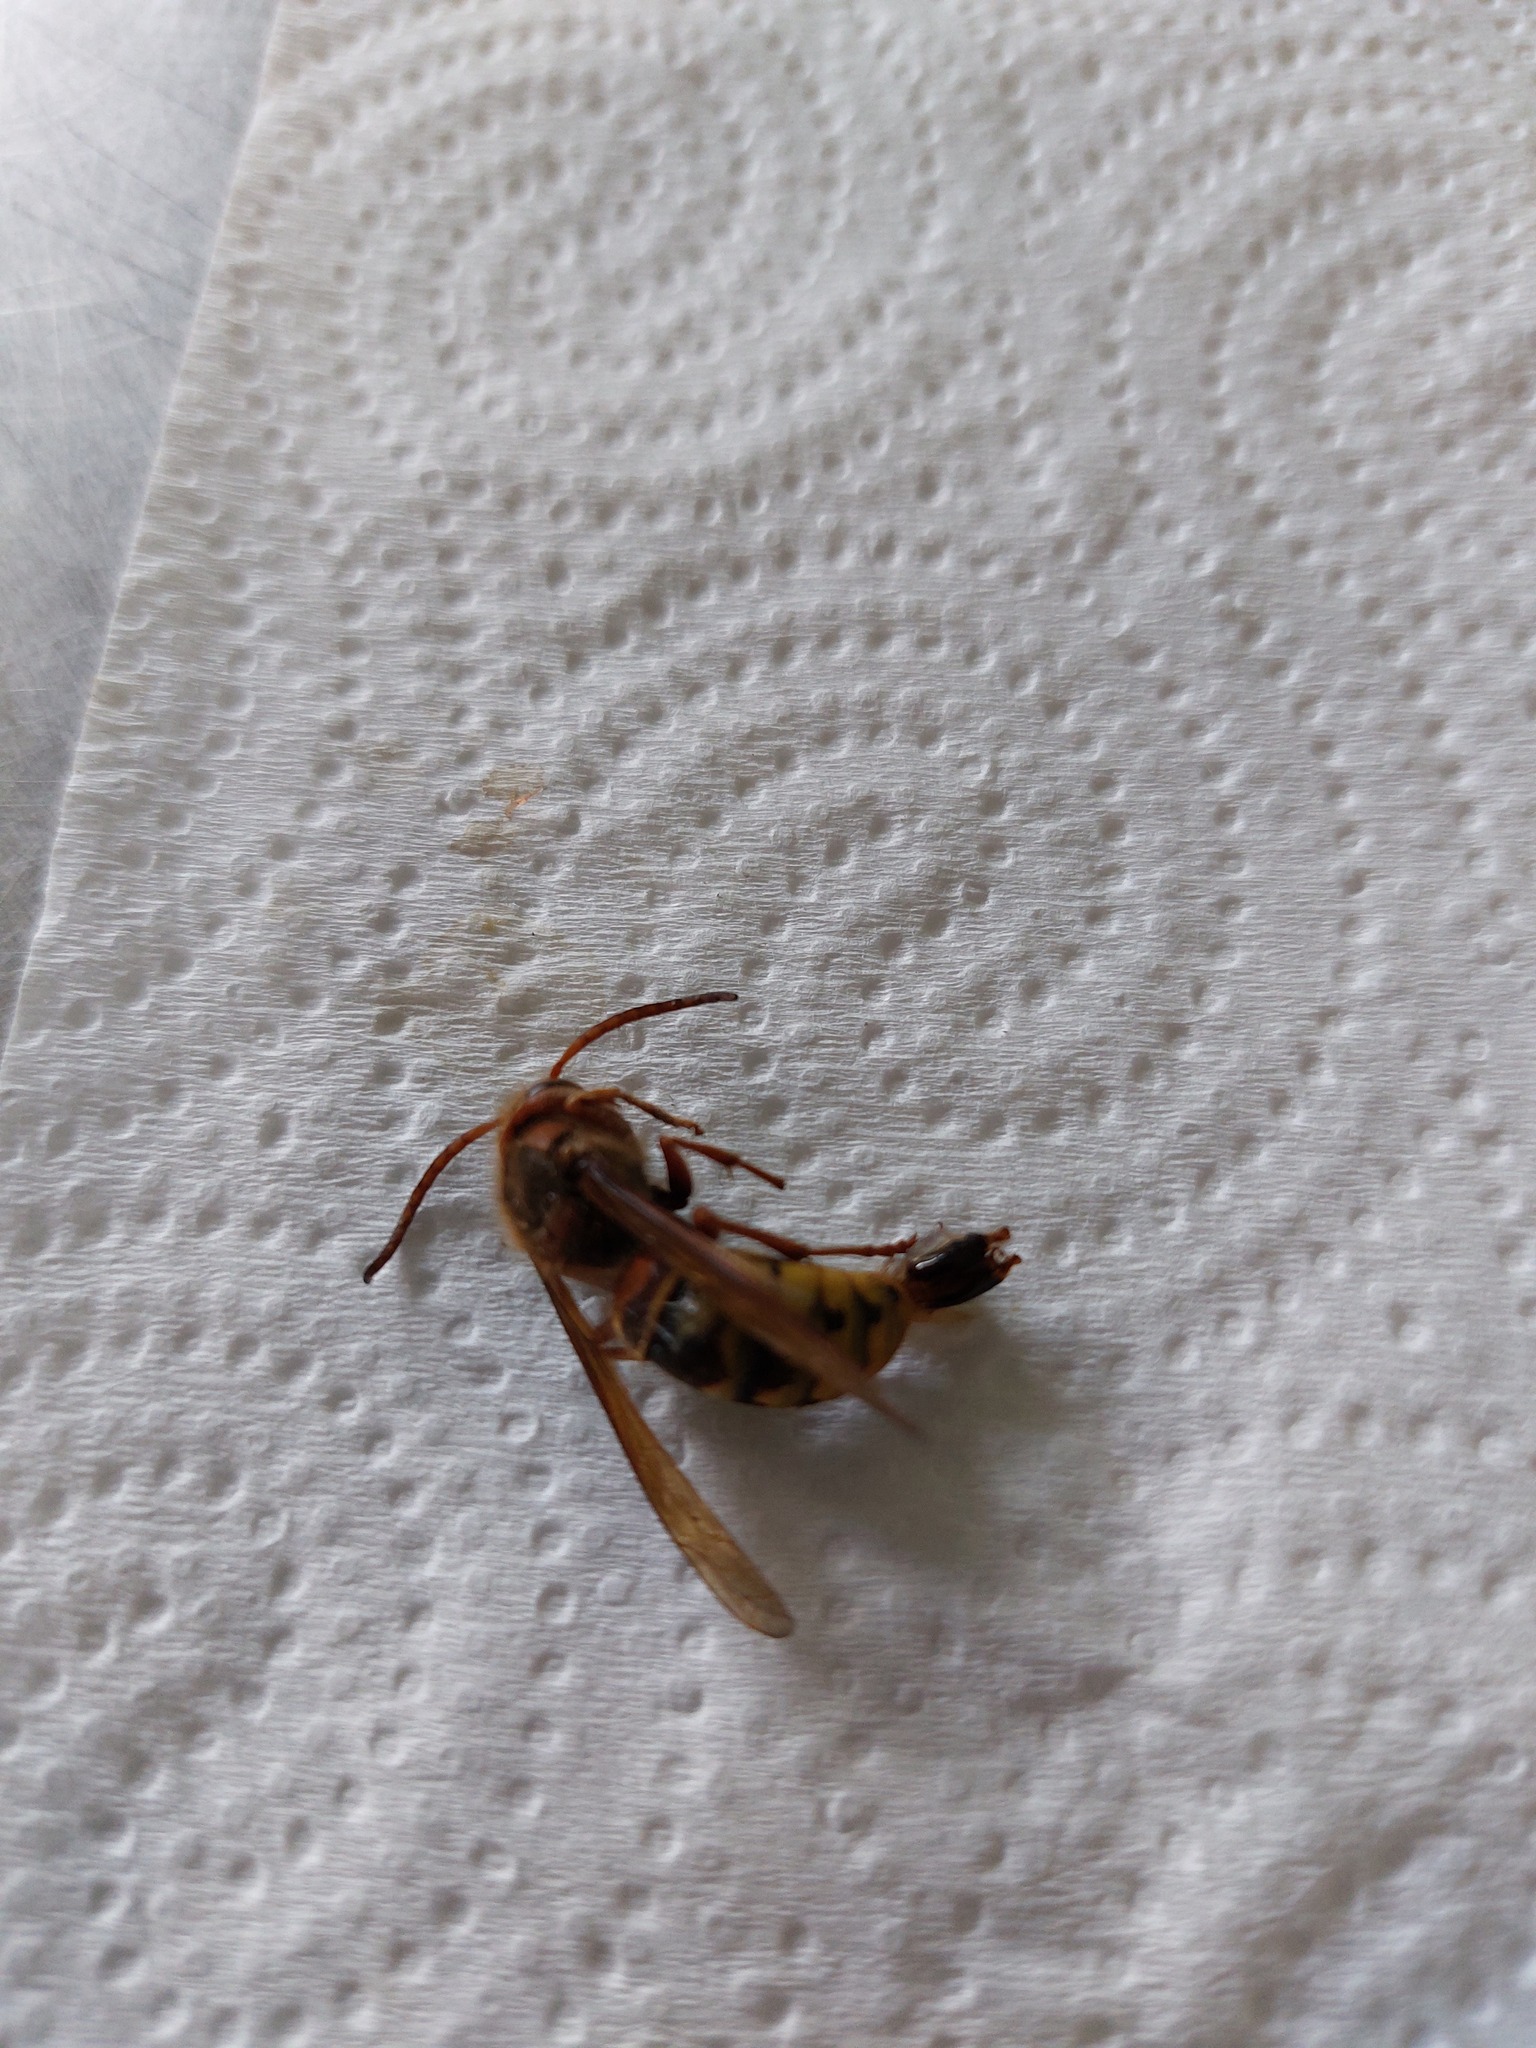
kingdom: Animalia
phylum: Arthropoda
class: Insecta
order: Hymenoptera
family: Vespidae
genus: Vespa
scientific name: Vespa crabro
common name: Hornet
